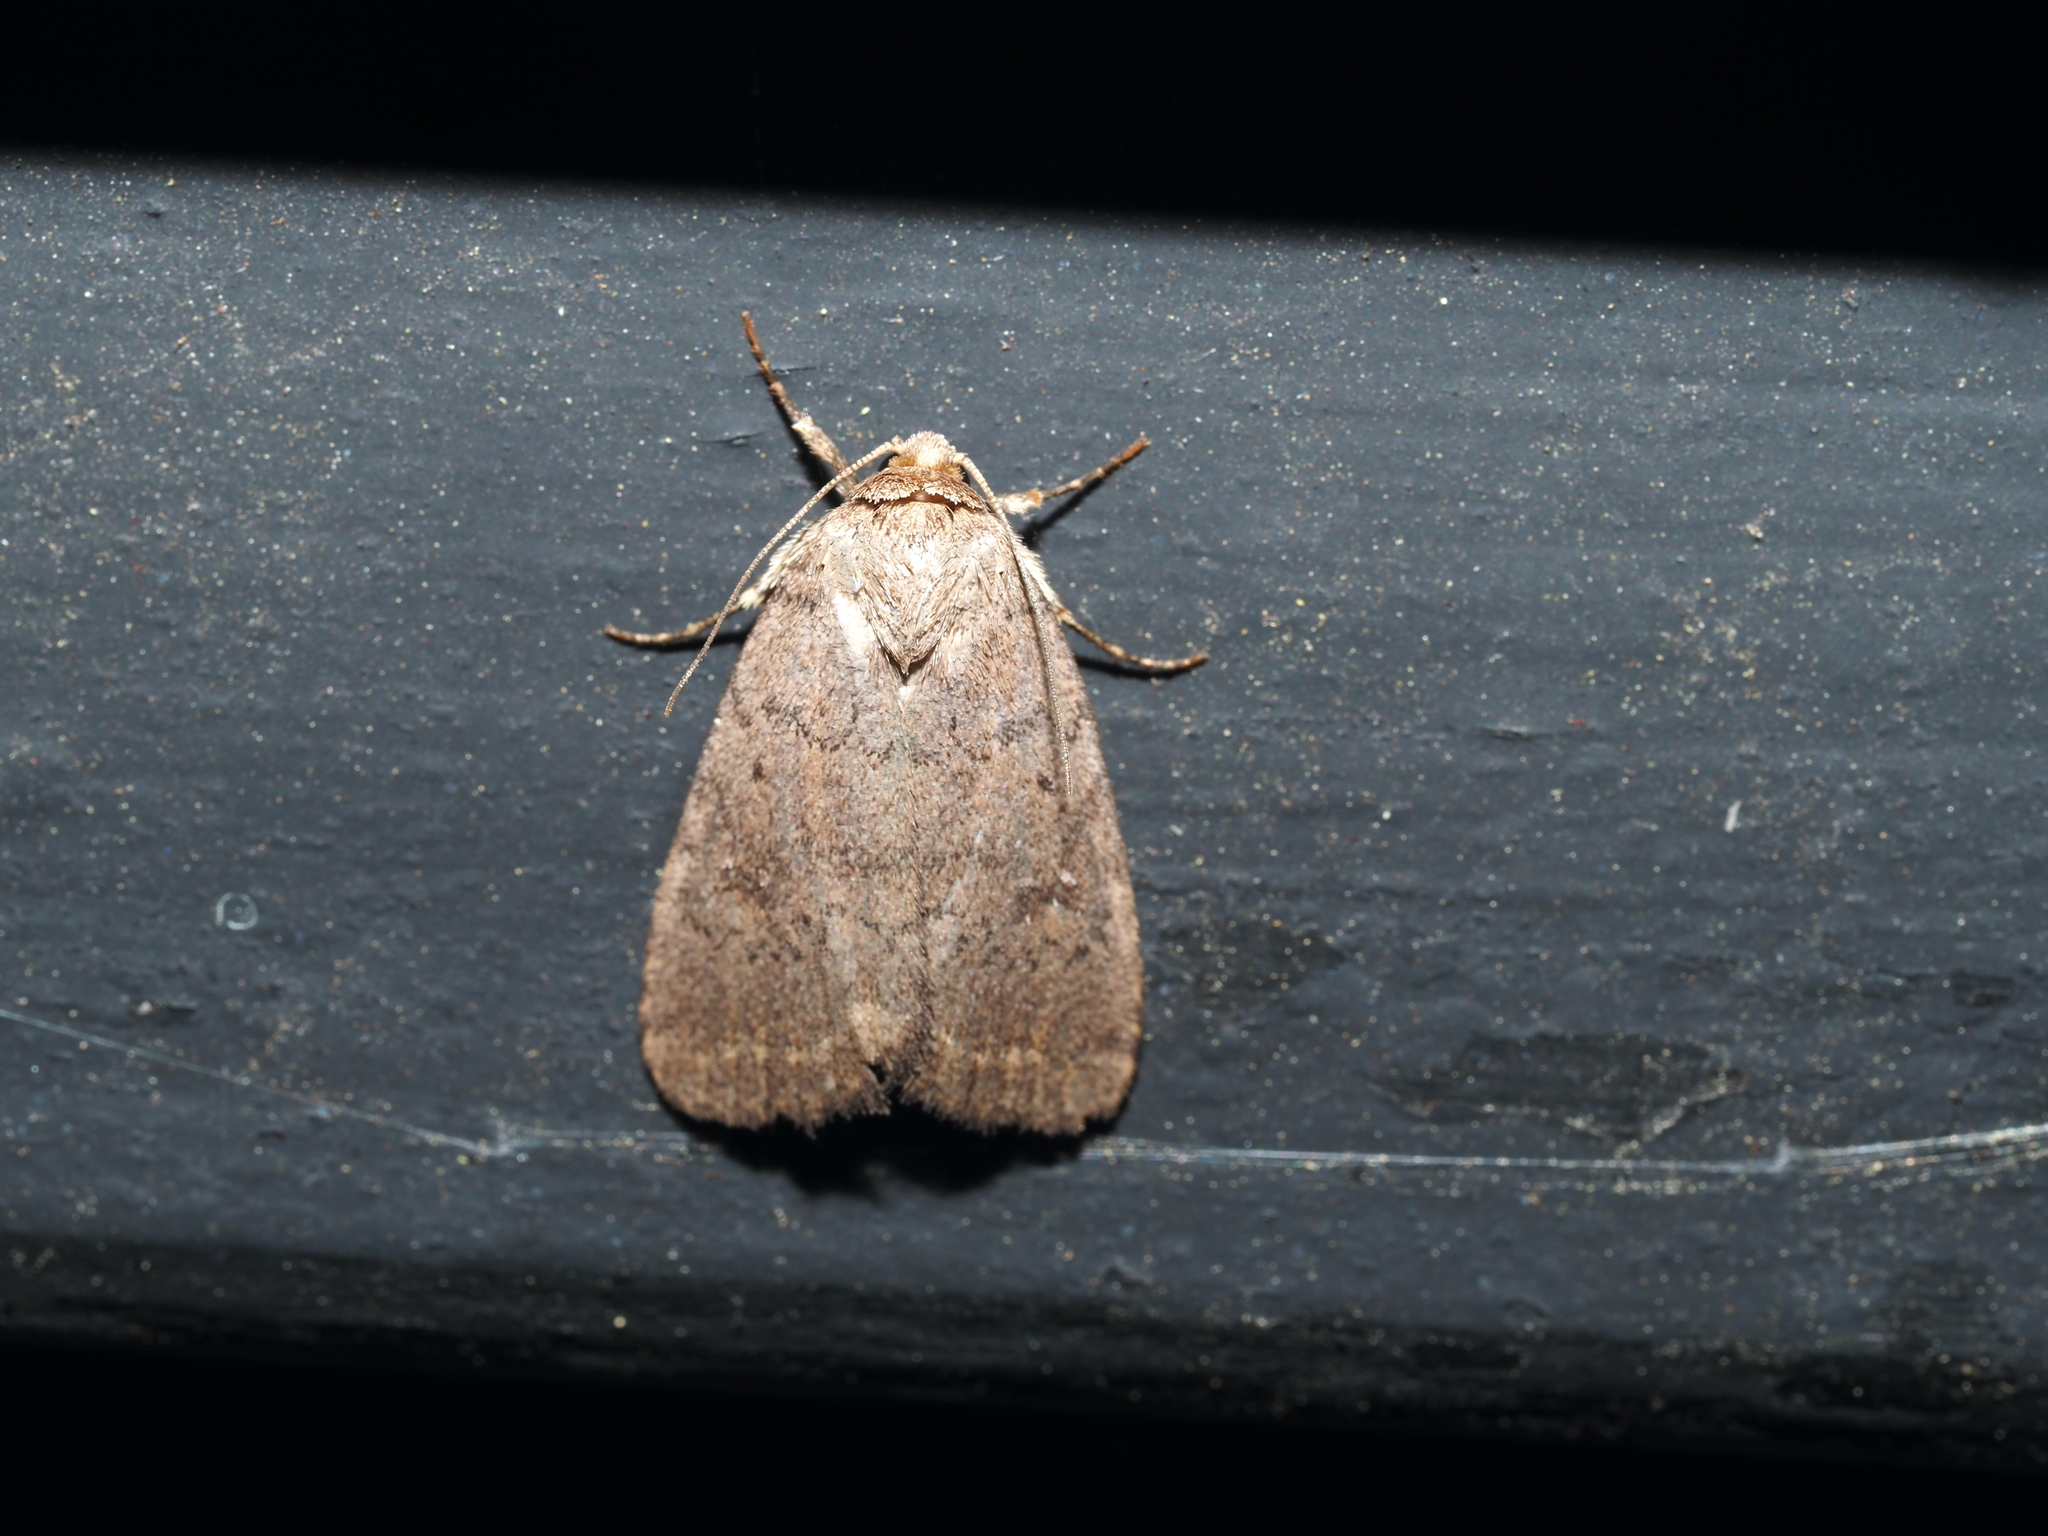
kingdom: Animalia
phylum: Arthropoda
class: Insecta
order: Lepidoptera
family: Noctuidae
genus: Athetis
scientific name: Athetis tarda
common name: Slowpoke moth
